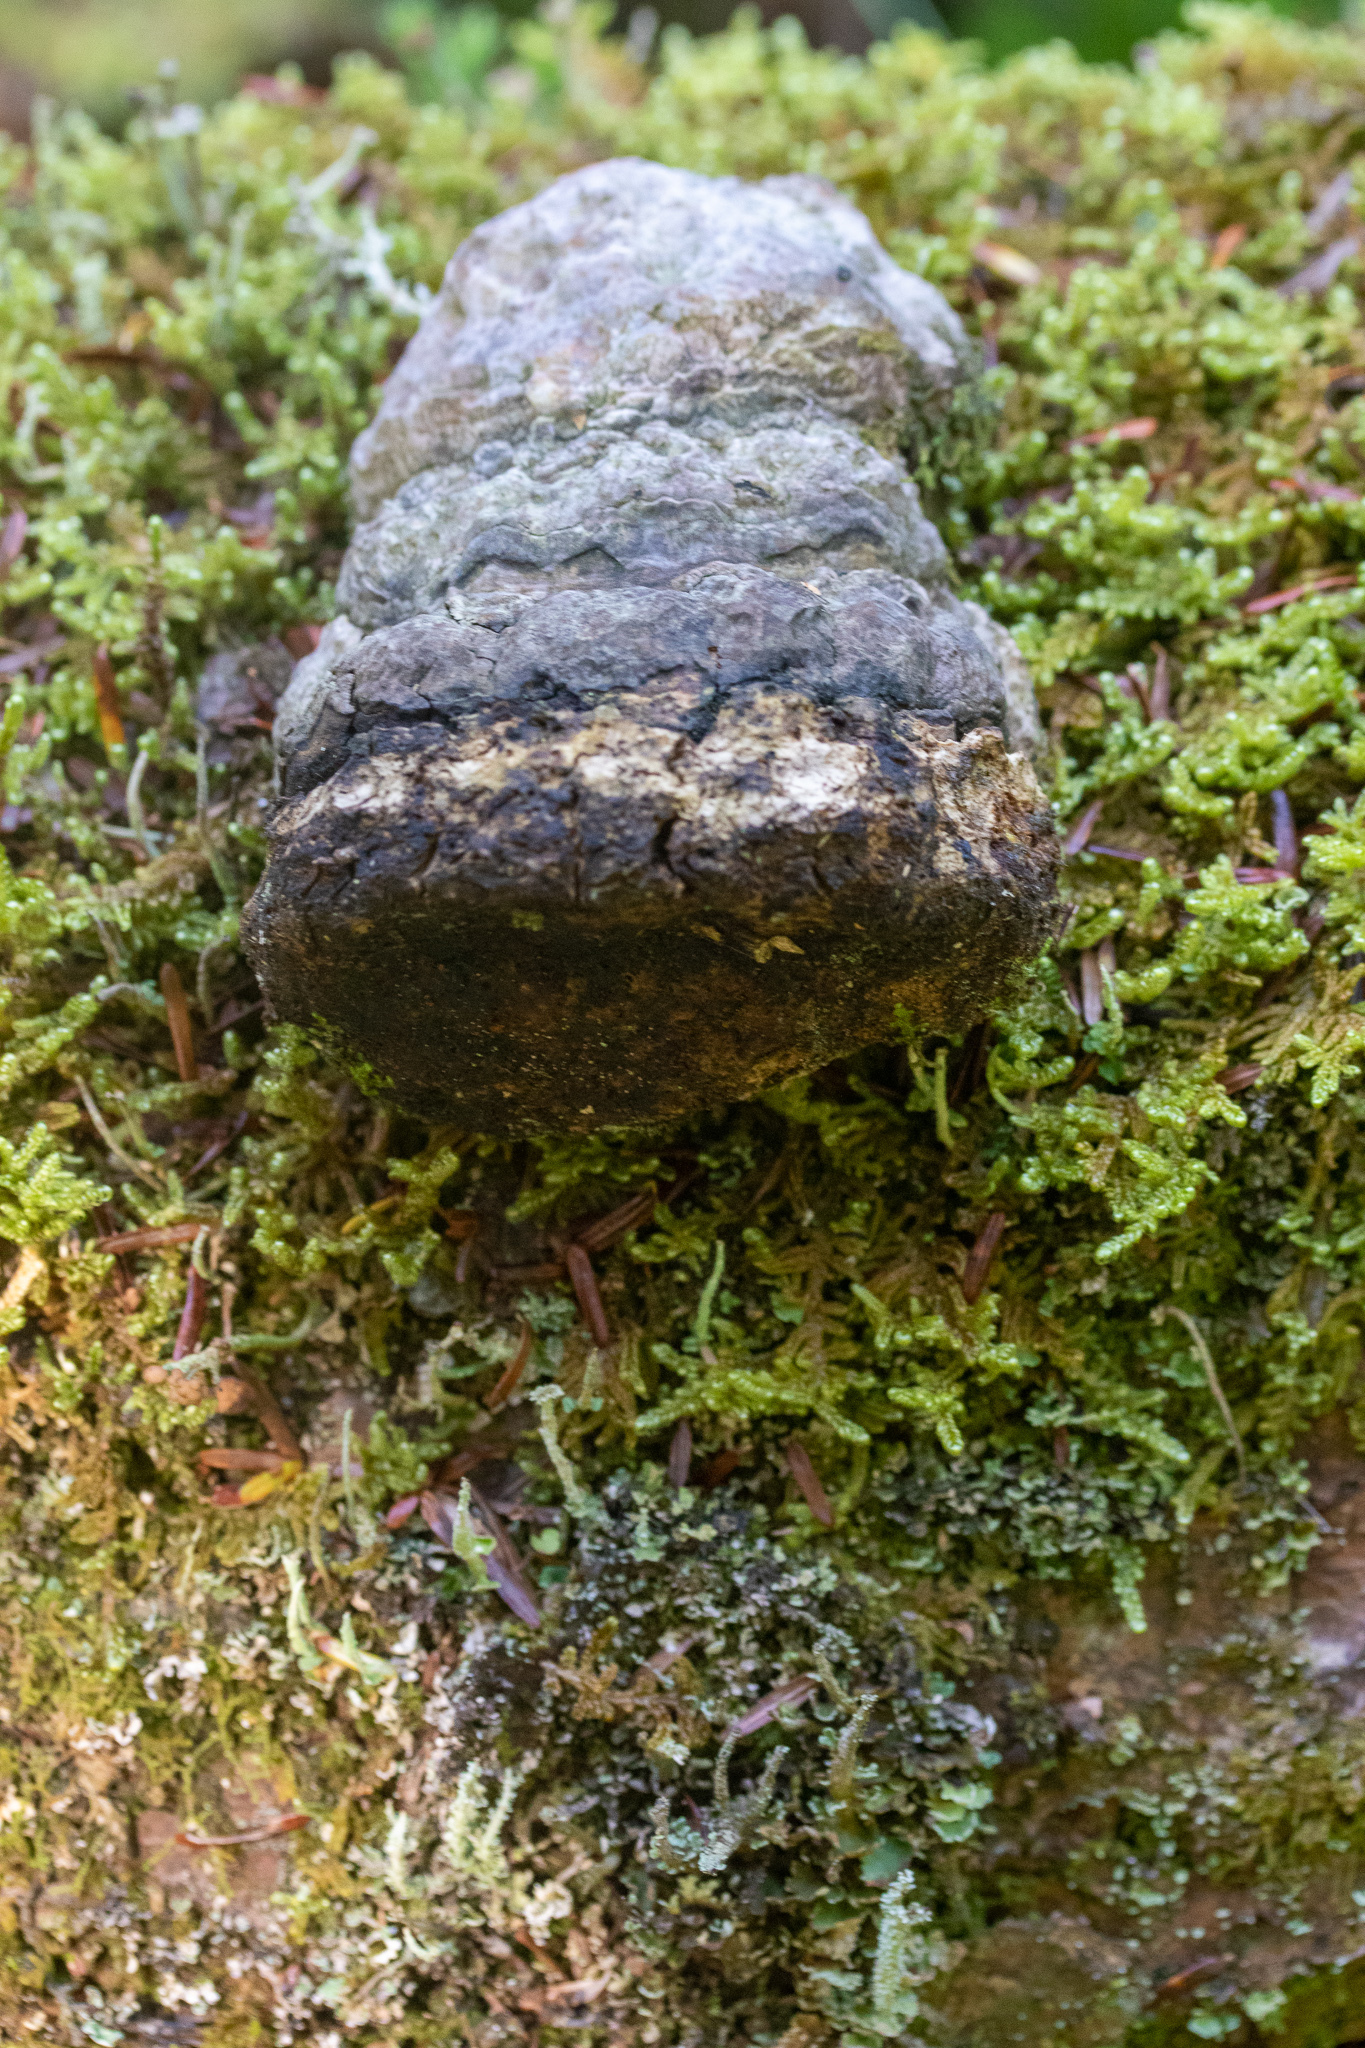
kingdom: Fungi
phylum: Basidiomycota
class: Agaricomycetes
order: Polyporales
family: Polyporaceae
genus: Fomes
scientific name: Fomes fomentarius
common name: Hoof fungus
